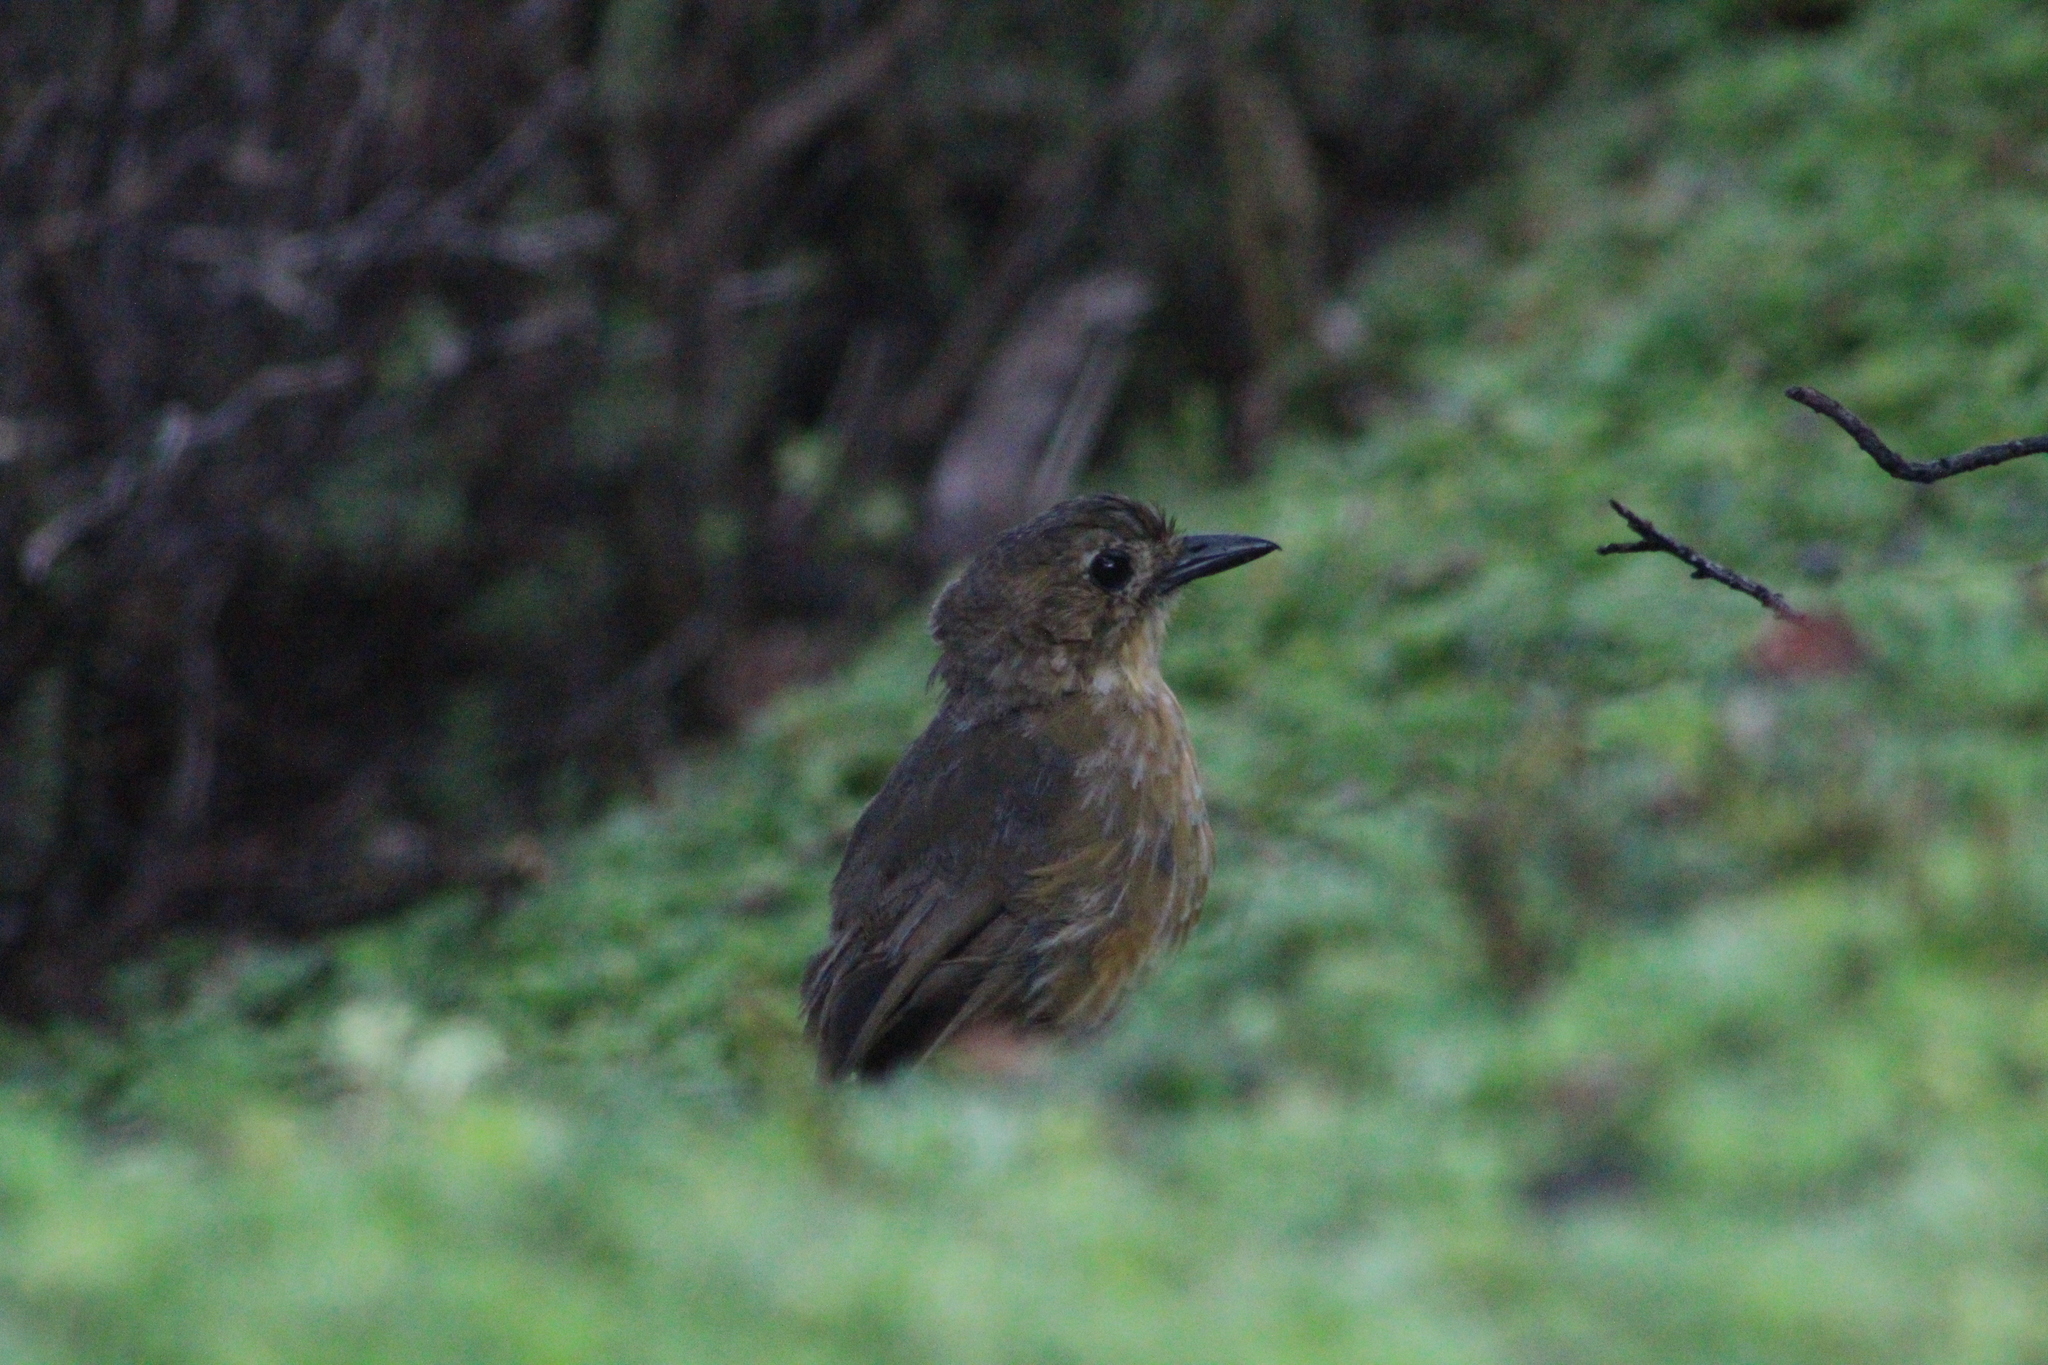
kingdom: Animalia
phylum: Chordata
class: Aves
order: Passeriformes
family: Grallariidae
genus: Grallaria
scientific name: Grallaria quitensis
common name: Tawny antpitta
